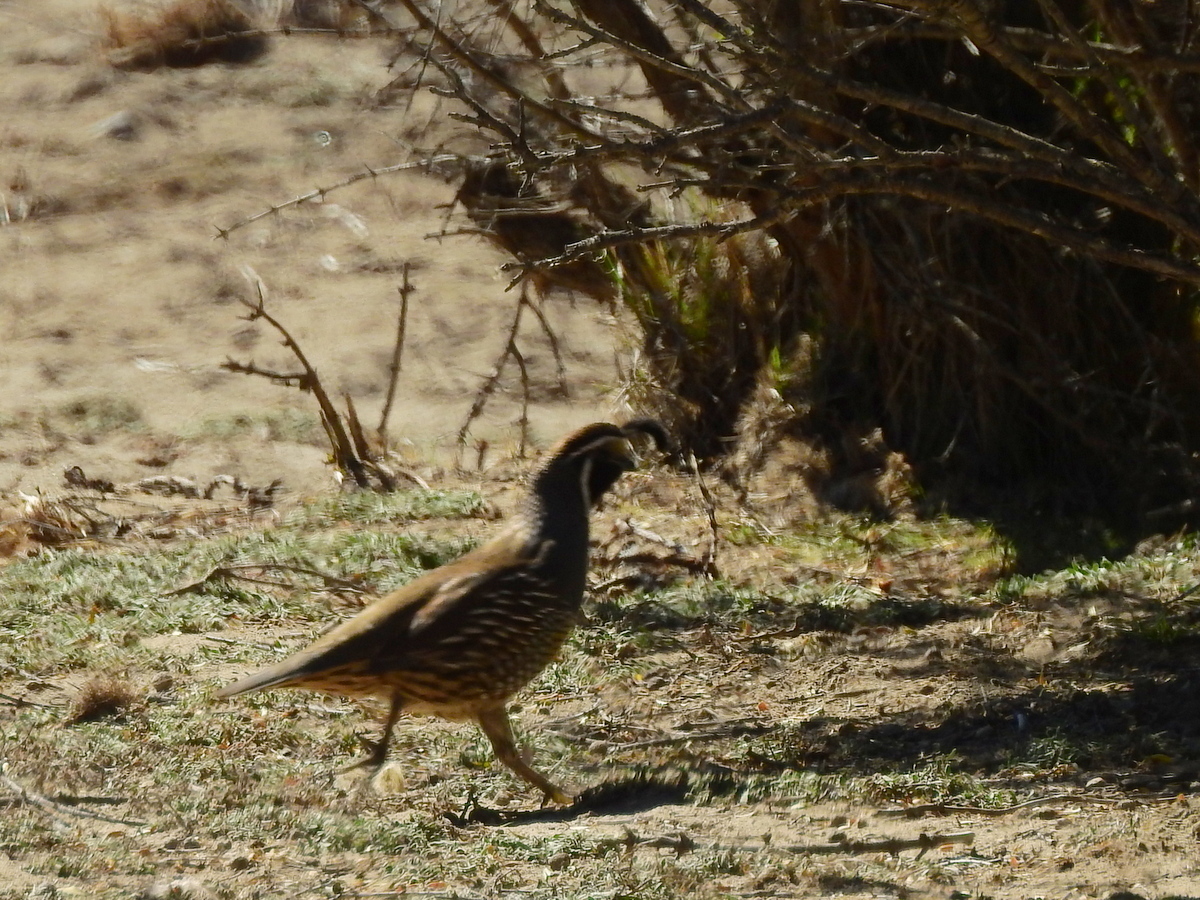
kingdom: Animalia
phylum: Chordata
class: Aves
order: Galliformes
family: Odontophoridae
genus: Callipepla
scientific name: Callipepla californica
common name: California quail
